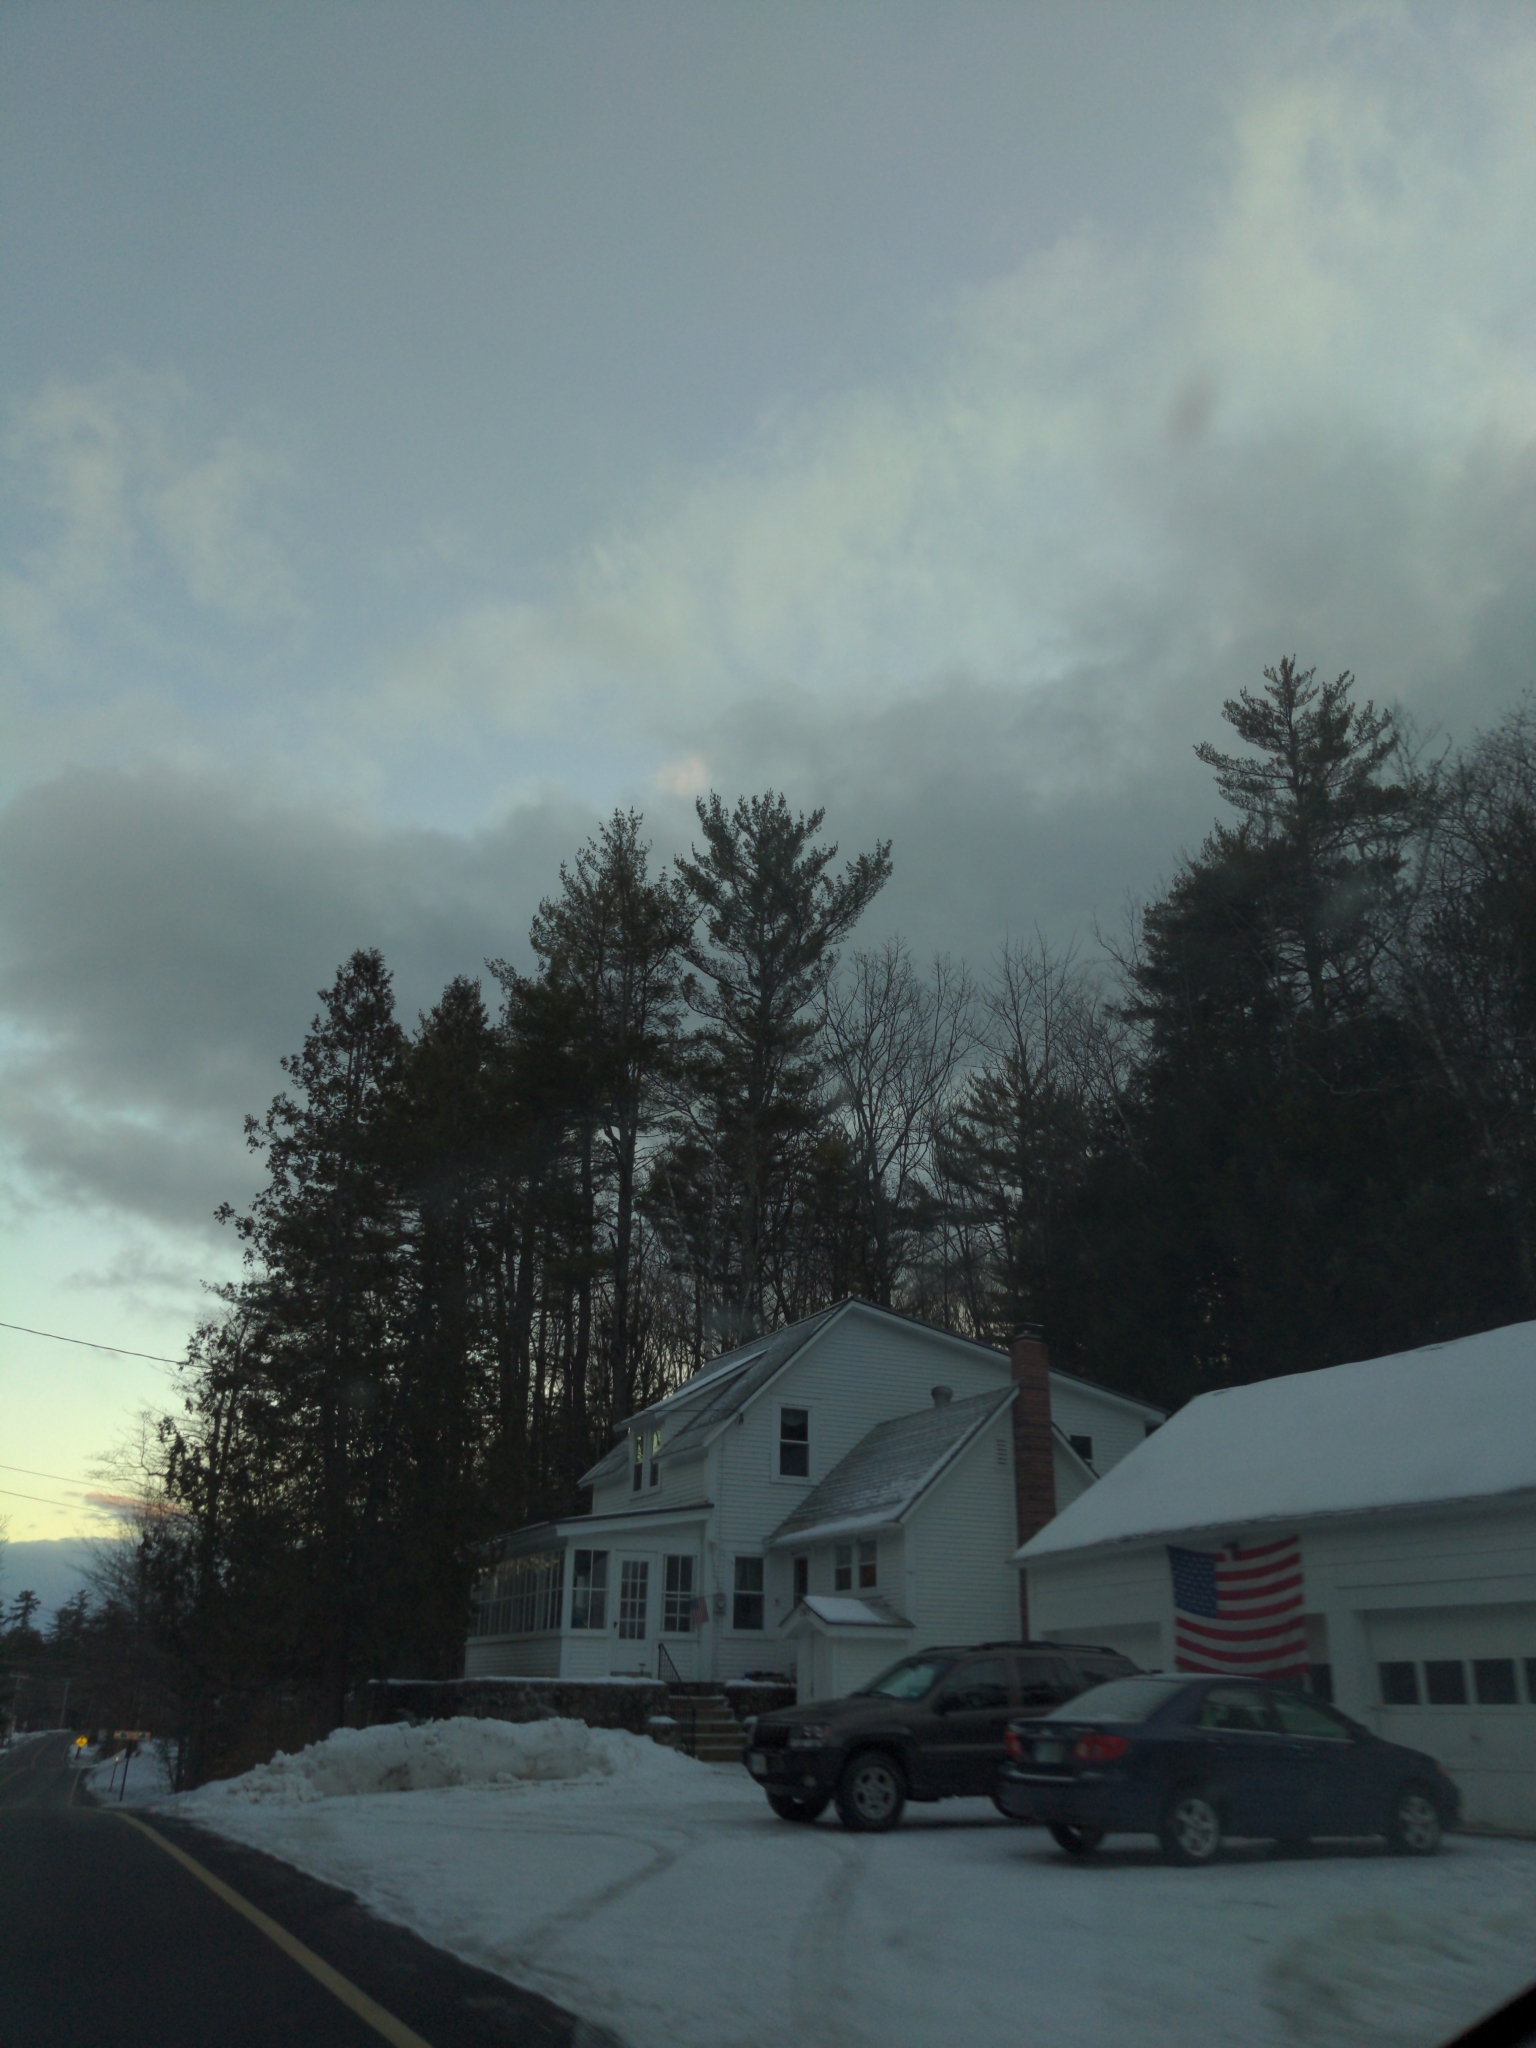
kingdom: Plantae
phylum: Tracheophyta
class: Pinopsida
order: Pinales
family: Pinaceae
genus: Pinus
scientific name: Pinus strobus
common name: Weymouth pine
